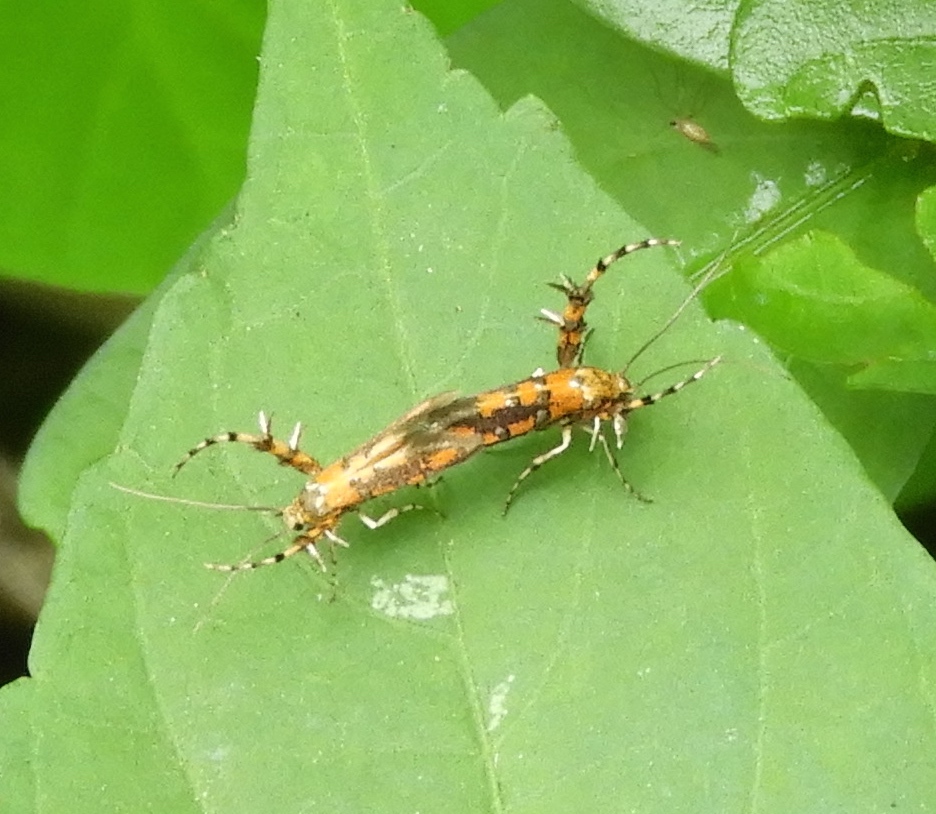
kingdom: Animalia
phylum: Arthropoda
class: Insecta
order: Lepidoptera
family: Heliodinidae
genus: Heliodines
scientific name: Heliodines
